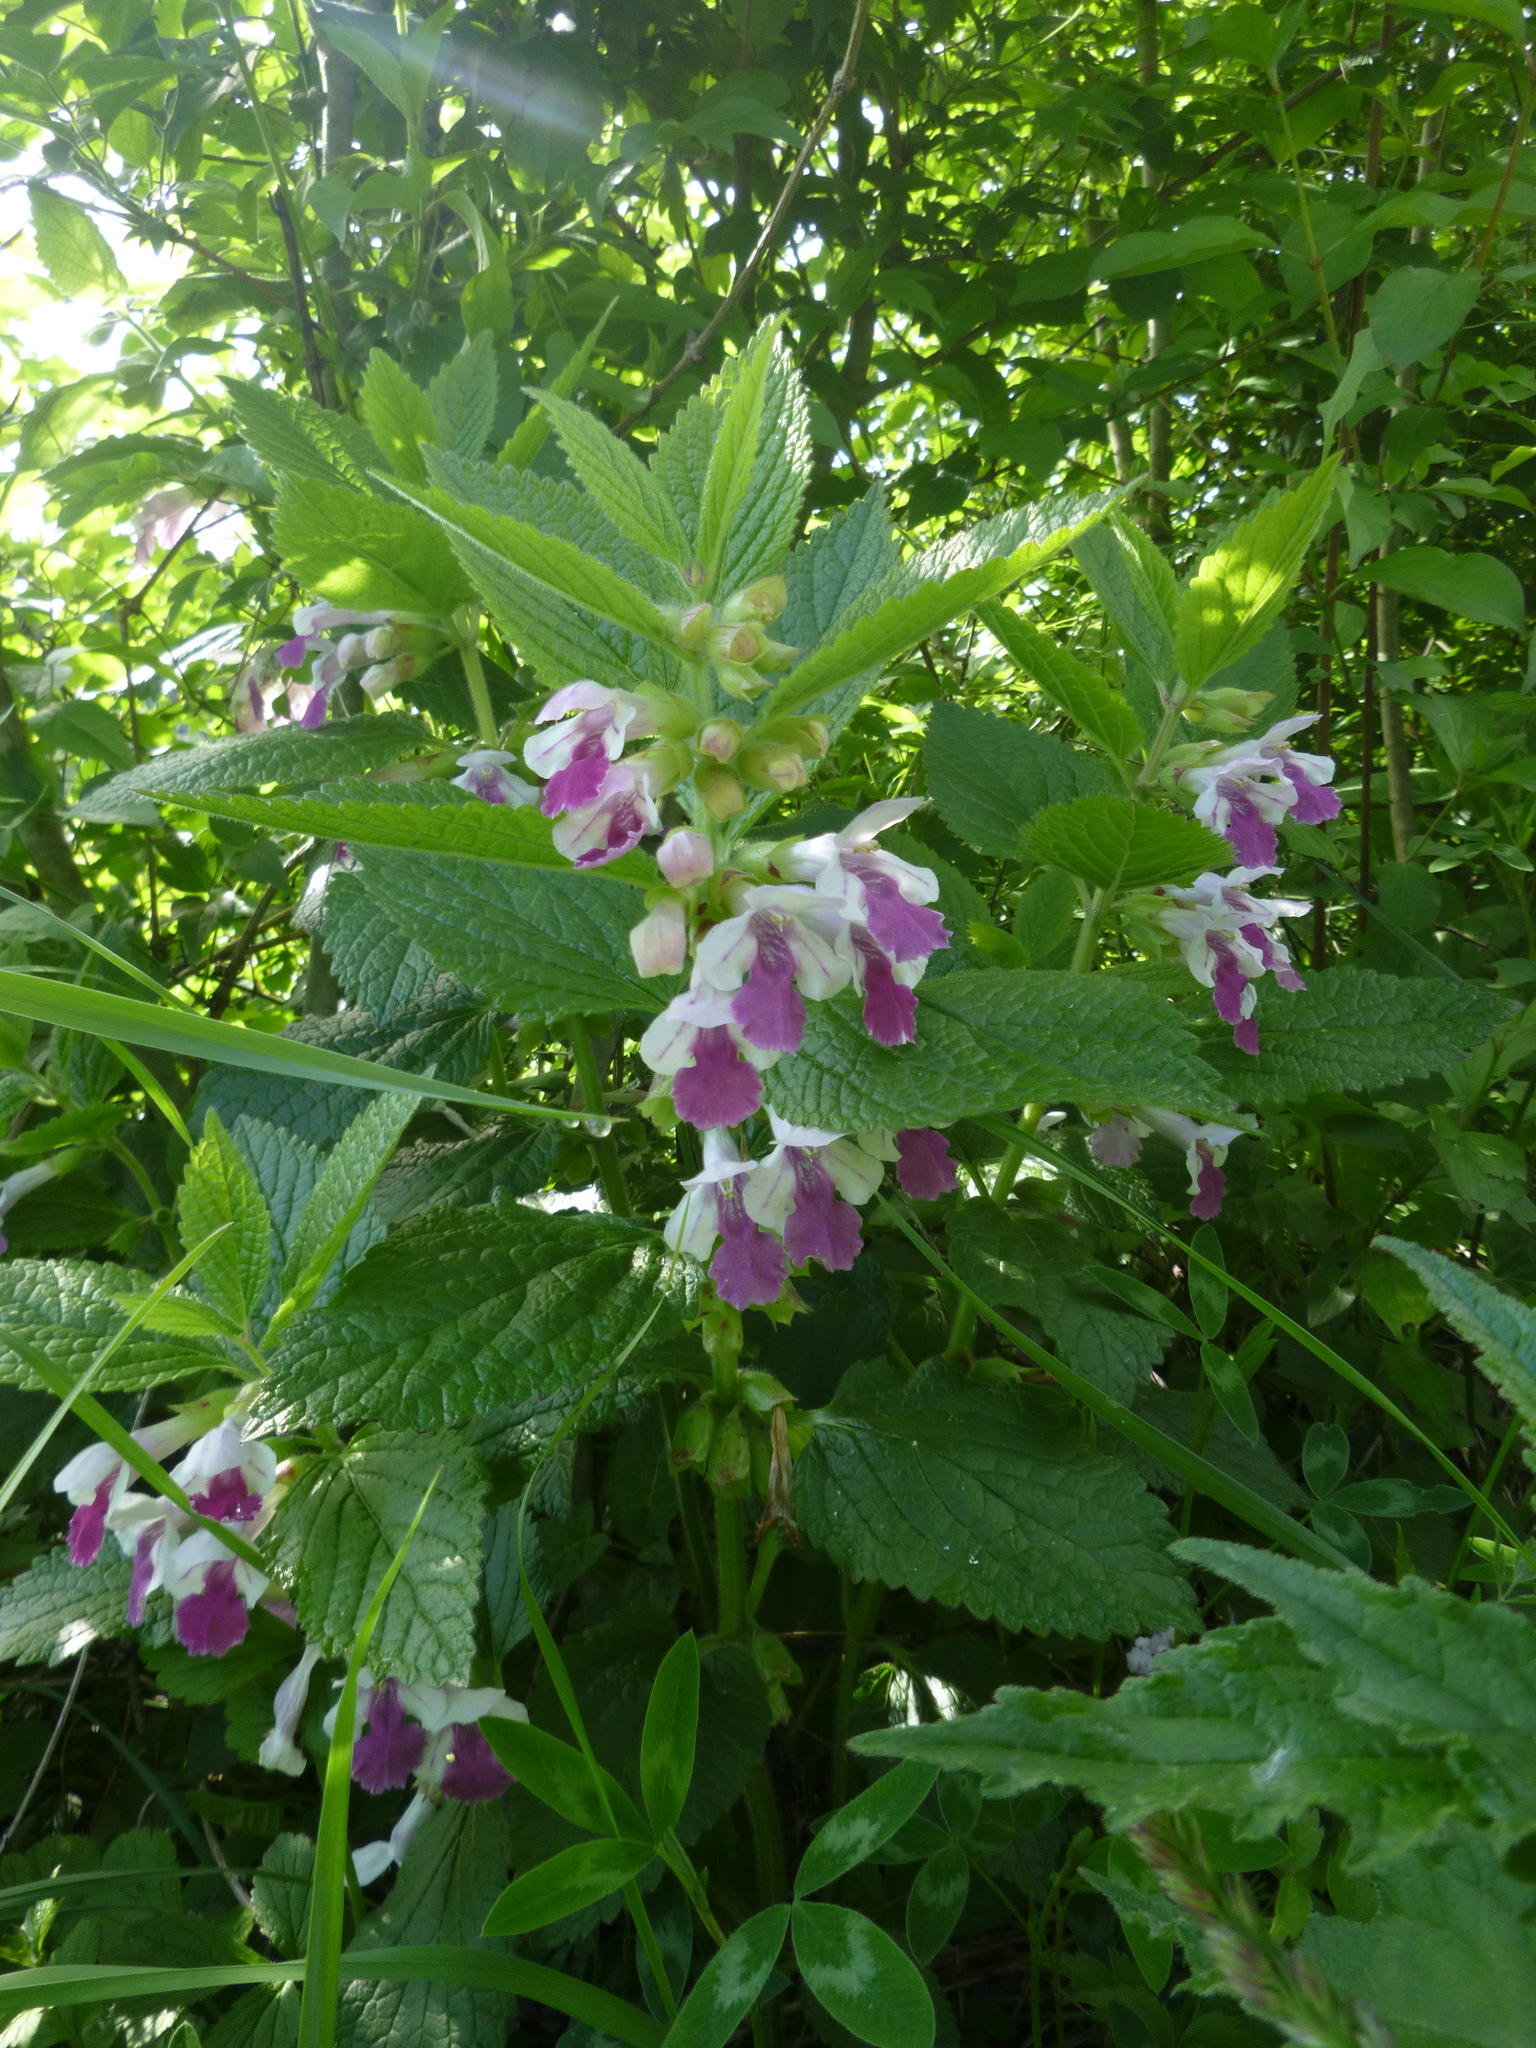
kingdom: Plantae
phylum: Tracheophyta
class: Magnoliopsida
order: Lamiales
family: Lamiaceae
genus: Melittis
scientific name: Melittis melissophyllum
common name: Bastard balm
